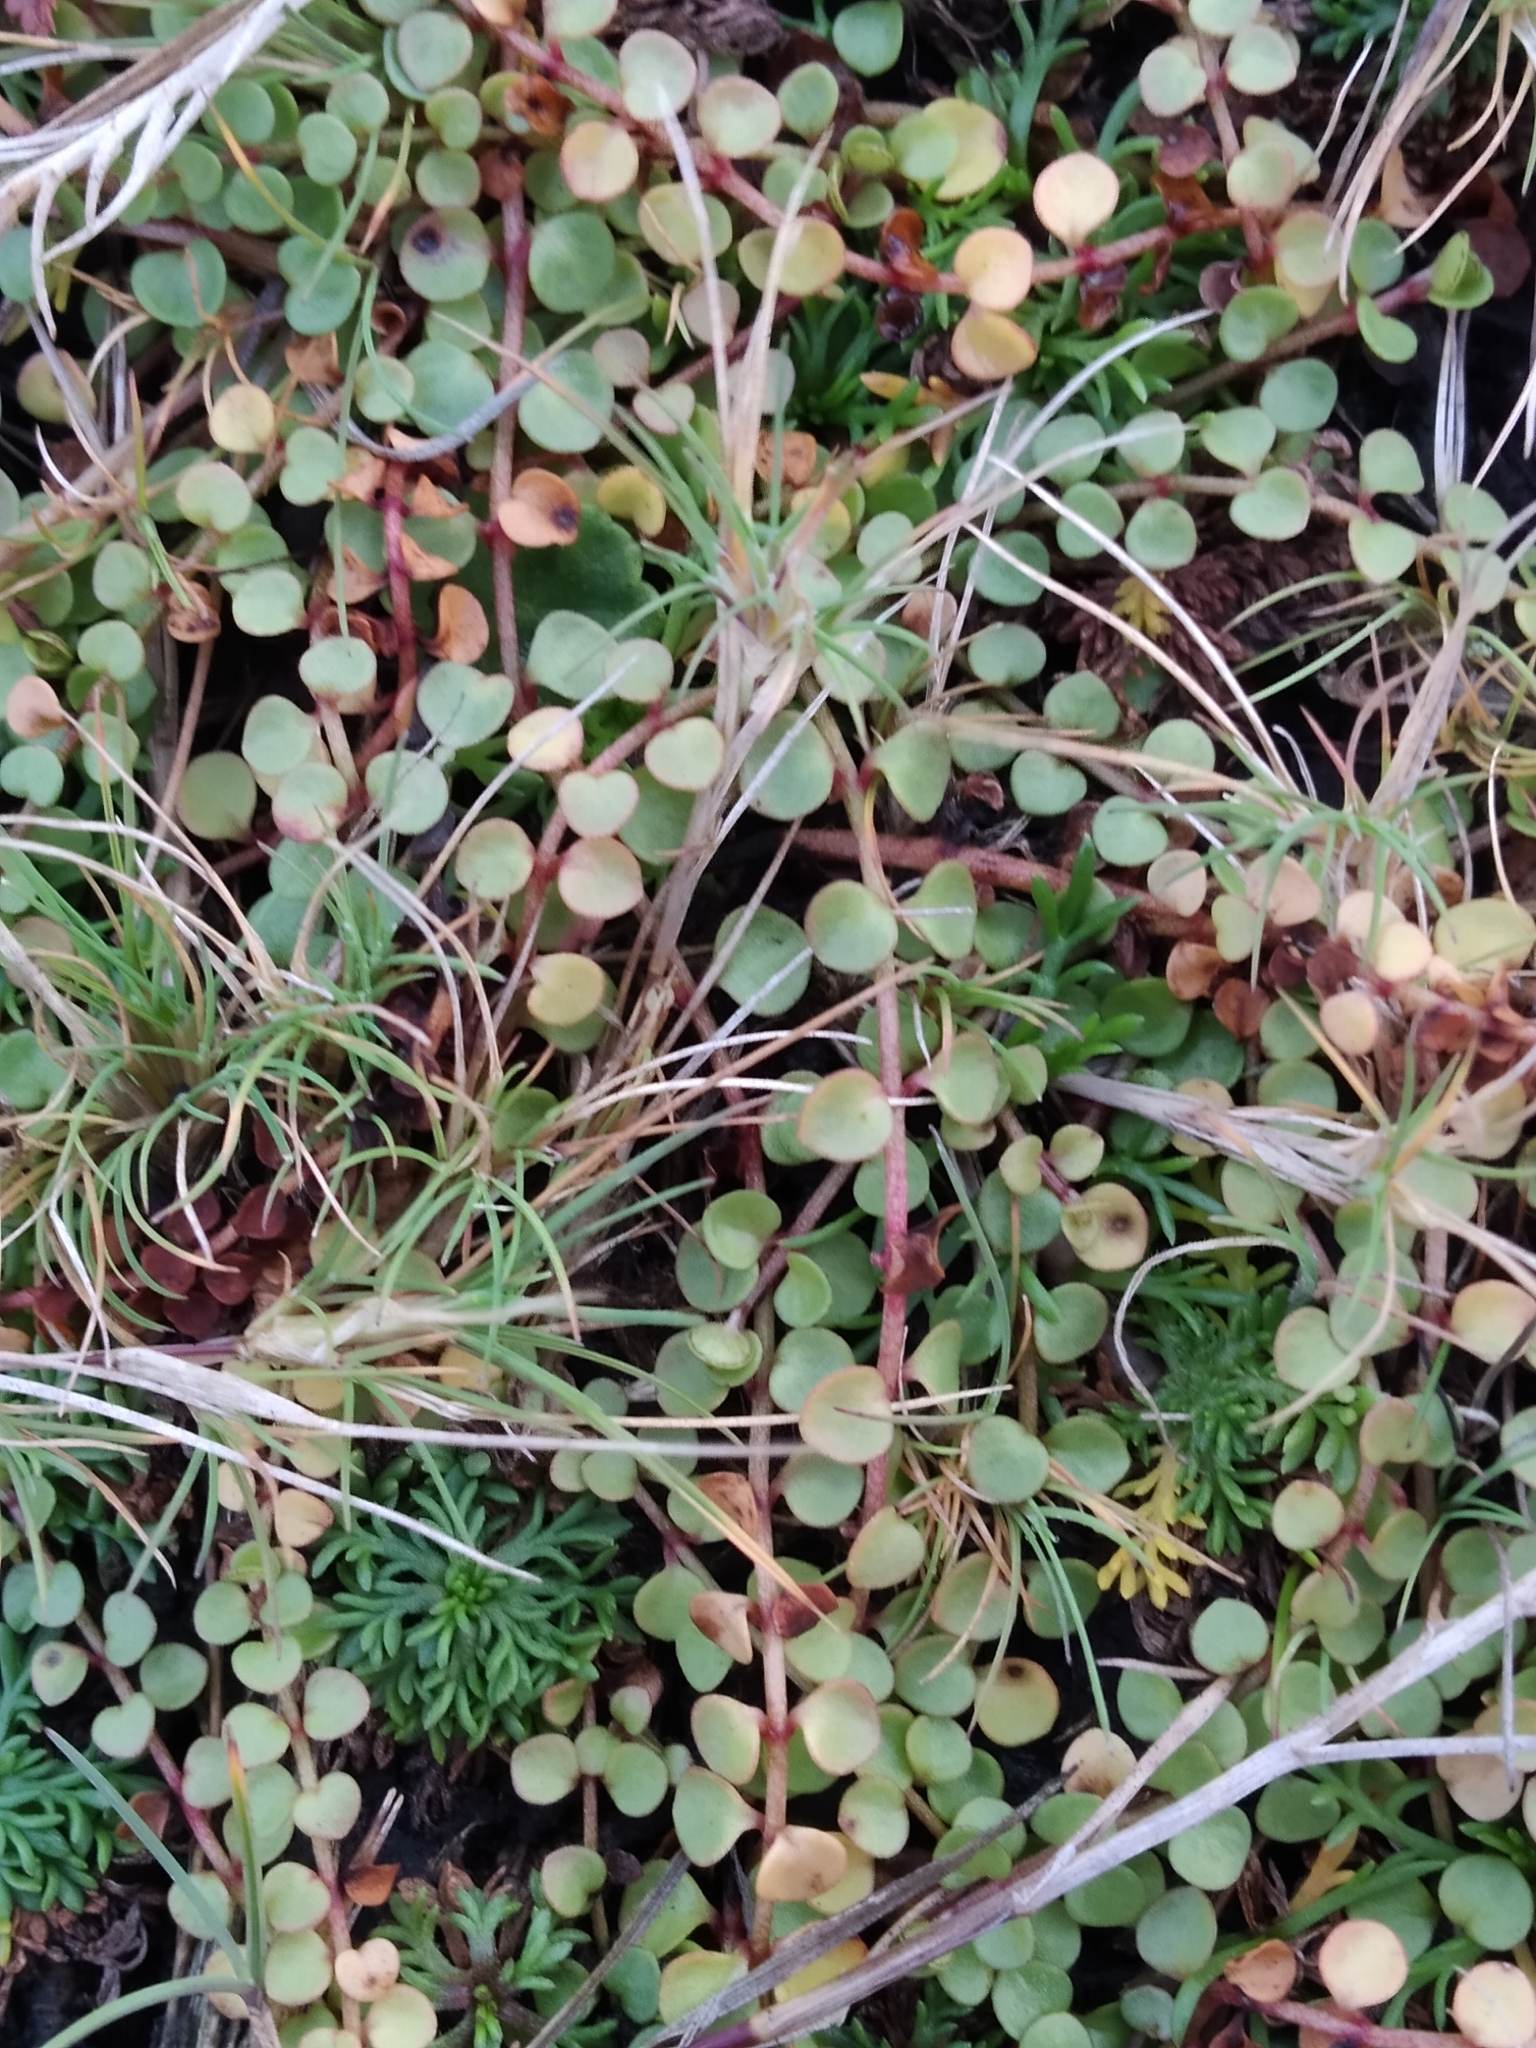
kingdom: Plantae
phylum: Tracheophyta
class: Magnoliopsida
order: Ericales
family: Primulaceae
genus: Lysimachia
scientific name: Lysimachia tenella
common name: European bog pimpernel
